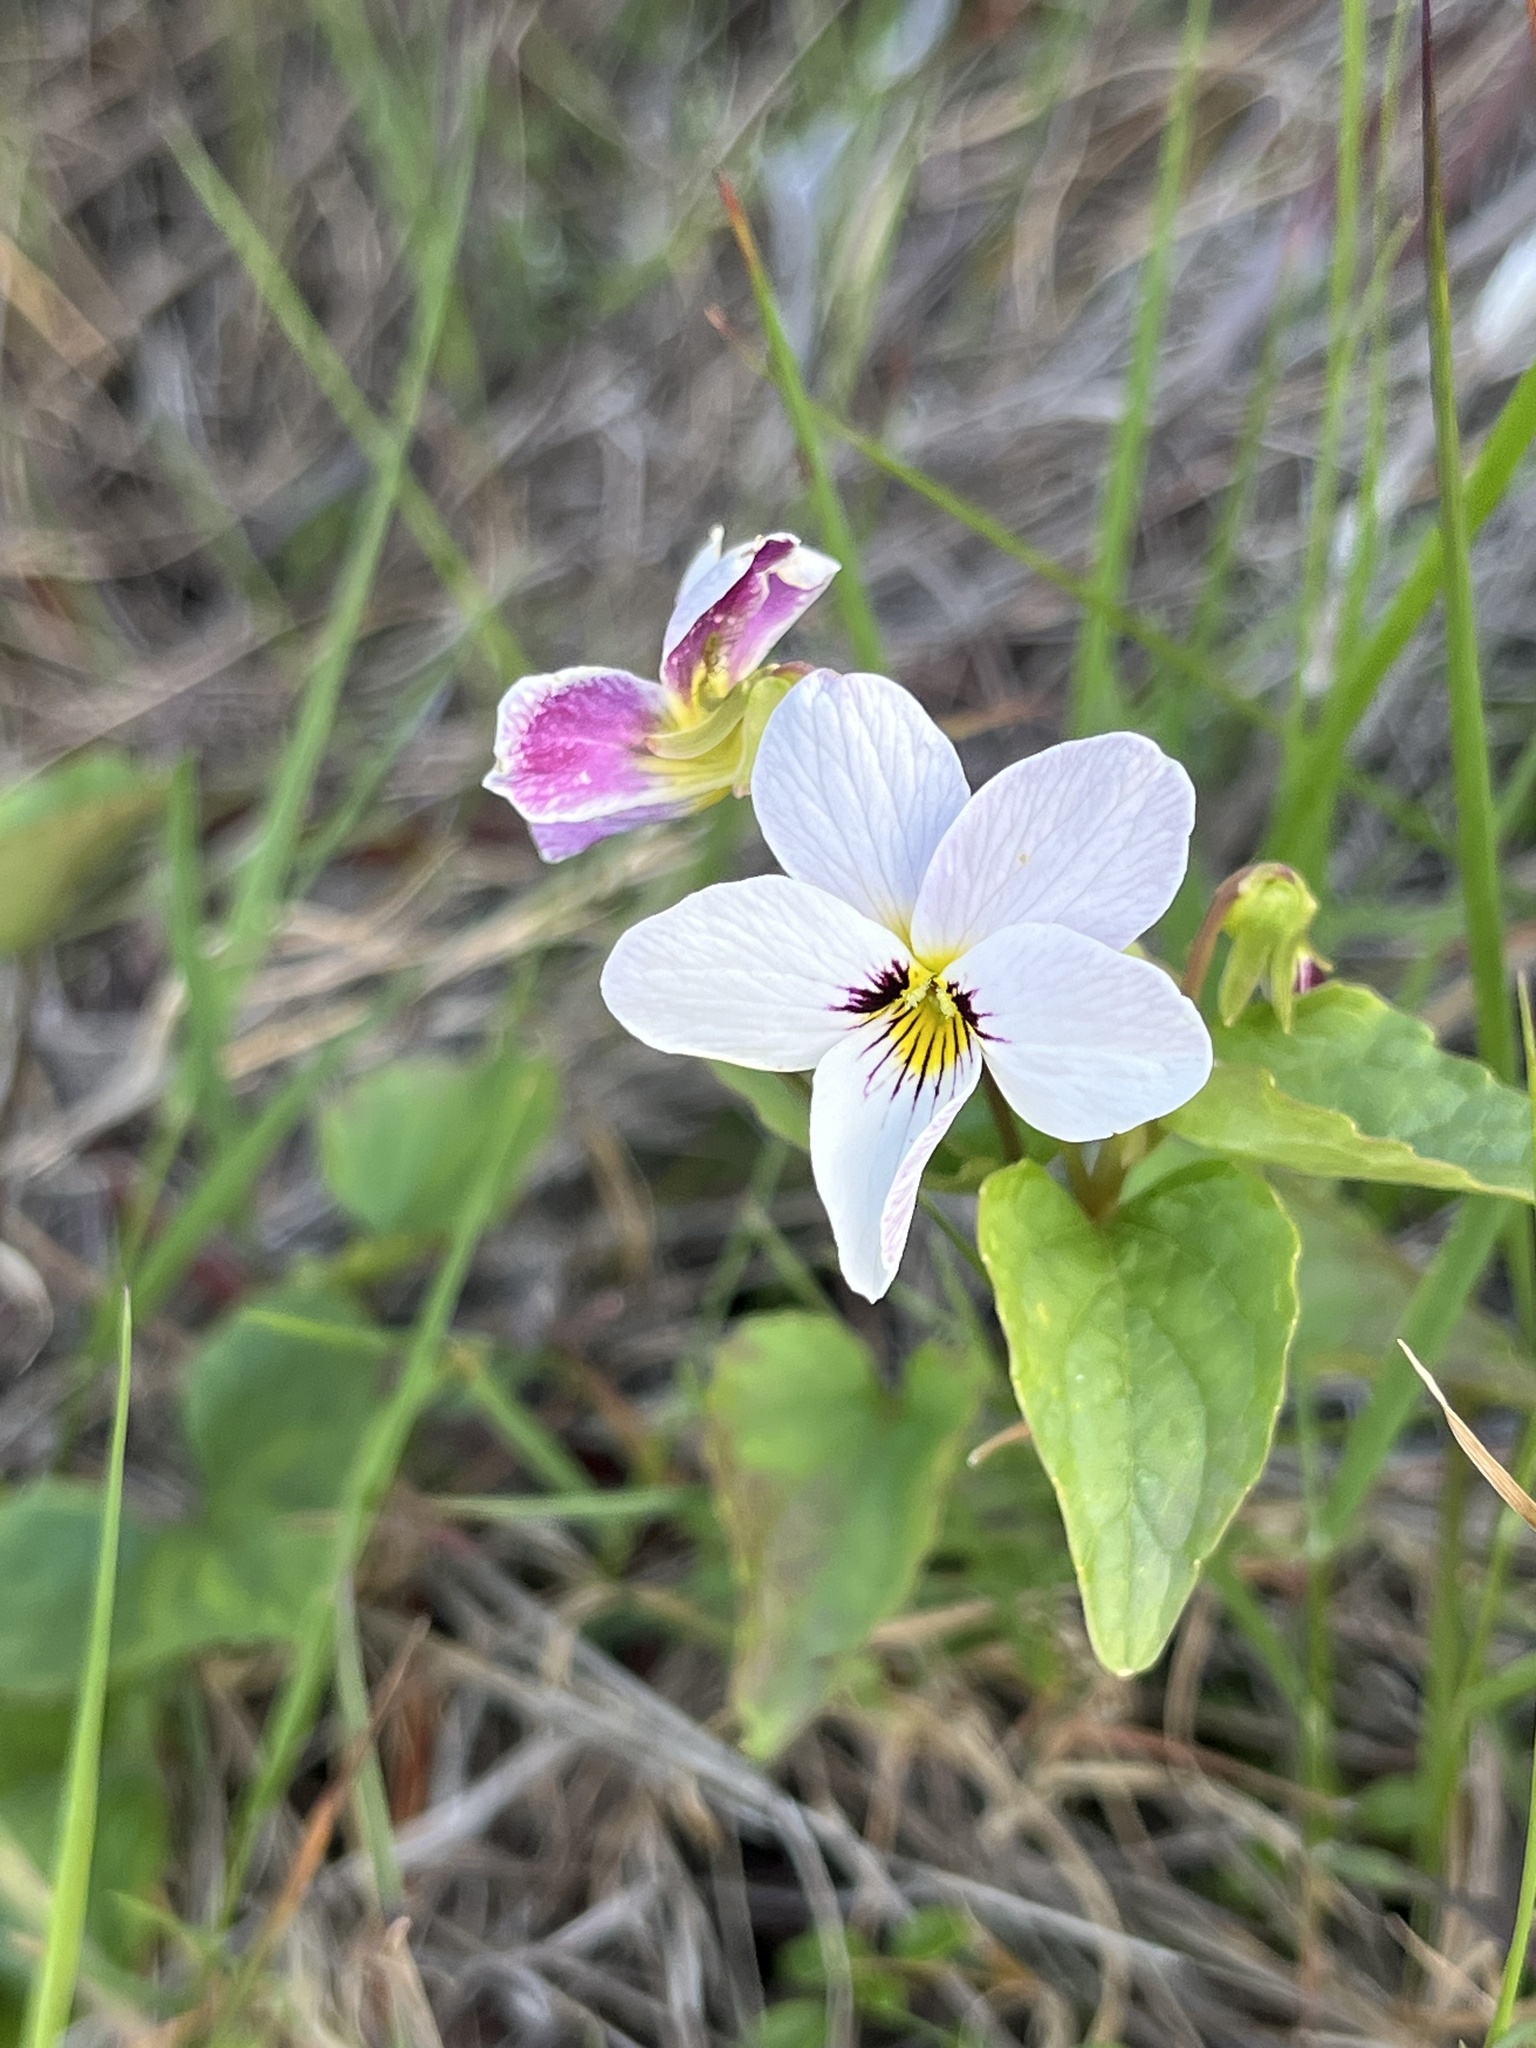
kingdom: Plantae
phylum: Tracheophyta
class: Magnoliopsida
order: Malpighiales
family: Violaceae
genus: Viola
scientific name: Viola ocellata
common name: Western heart's ease
